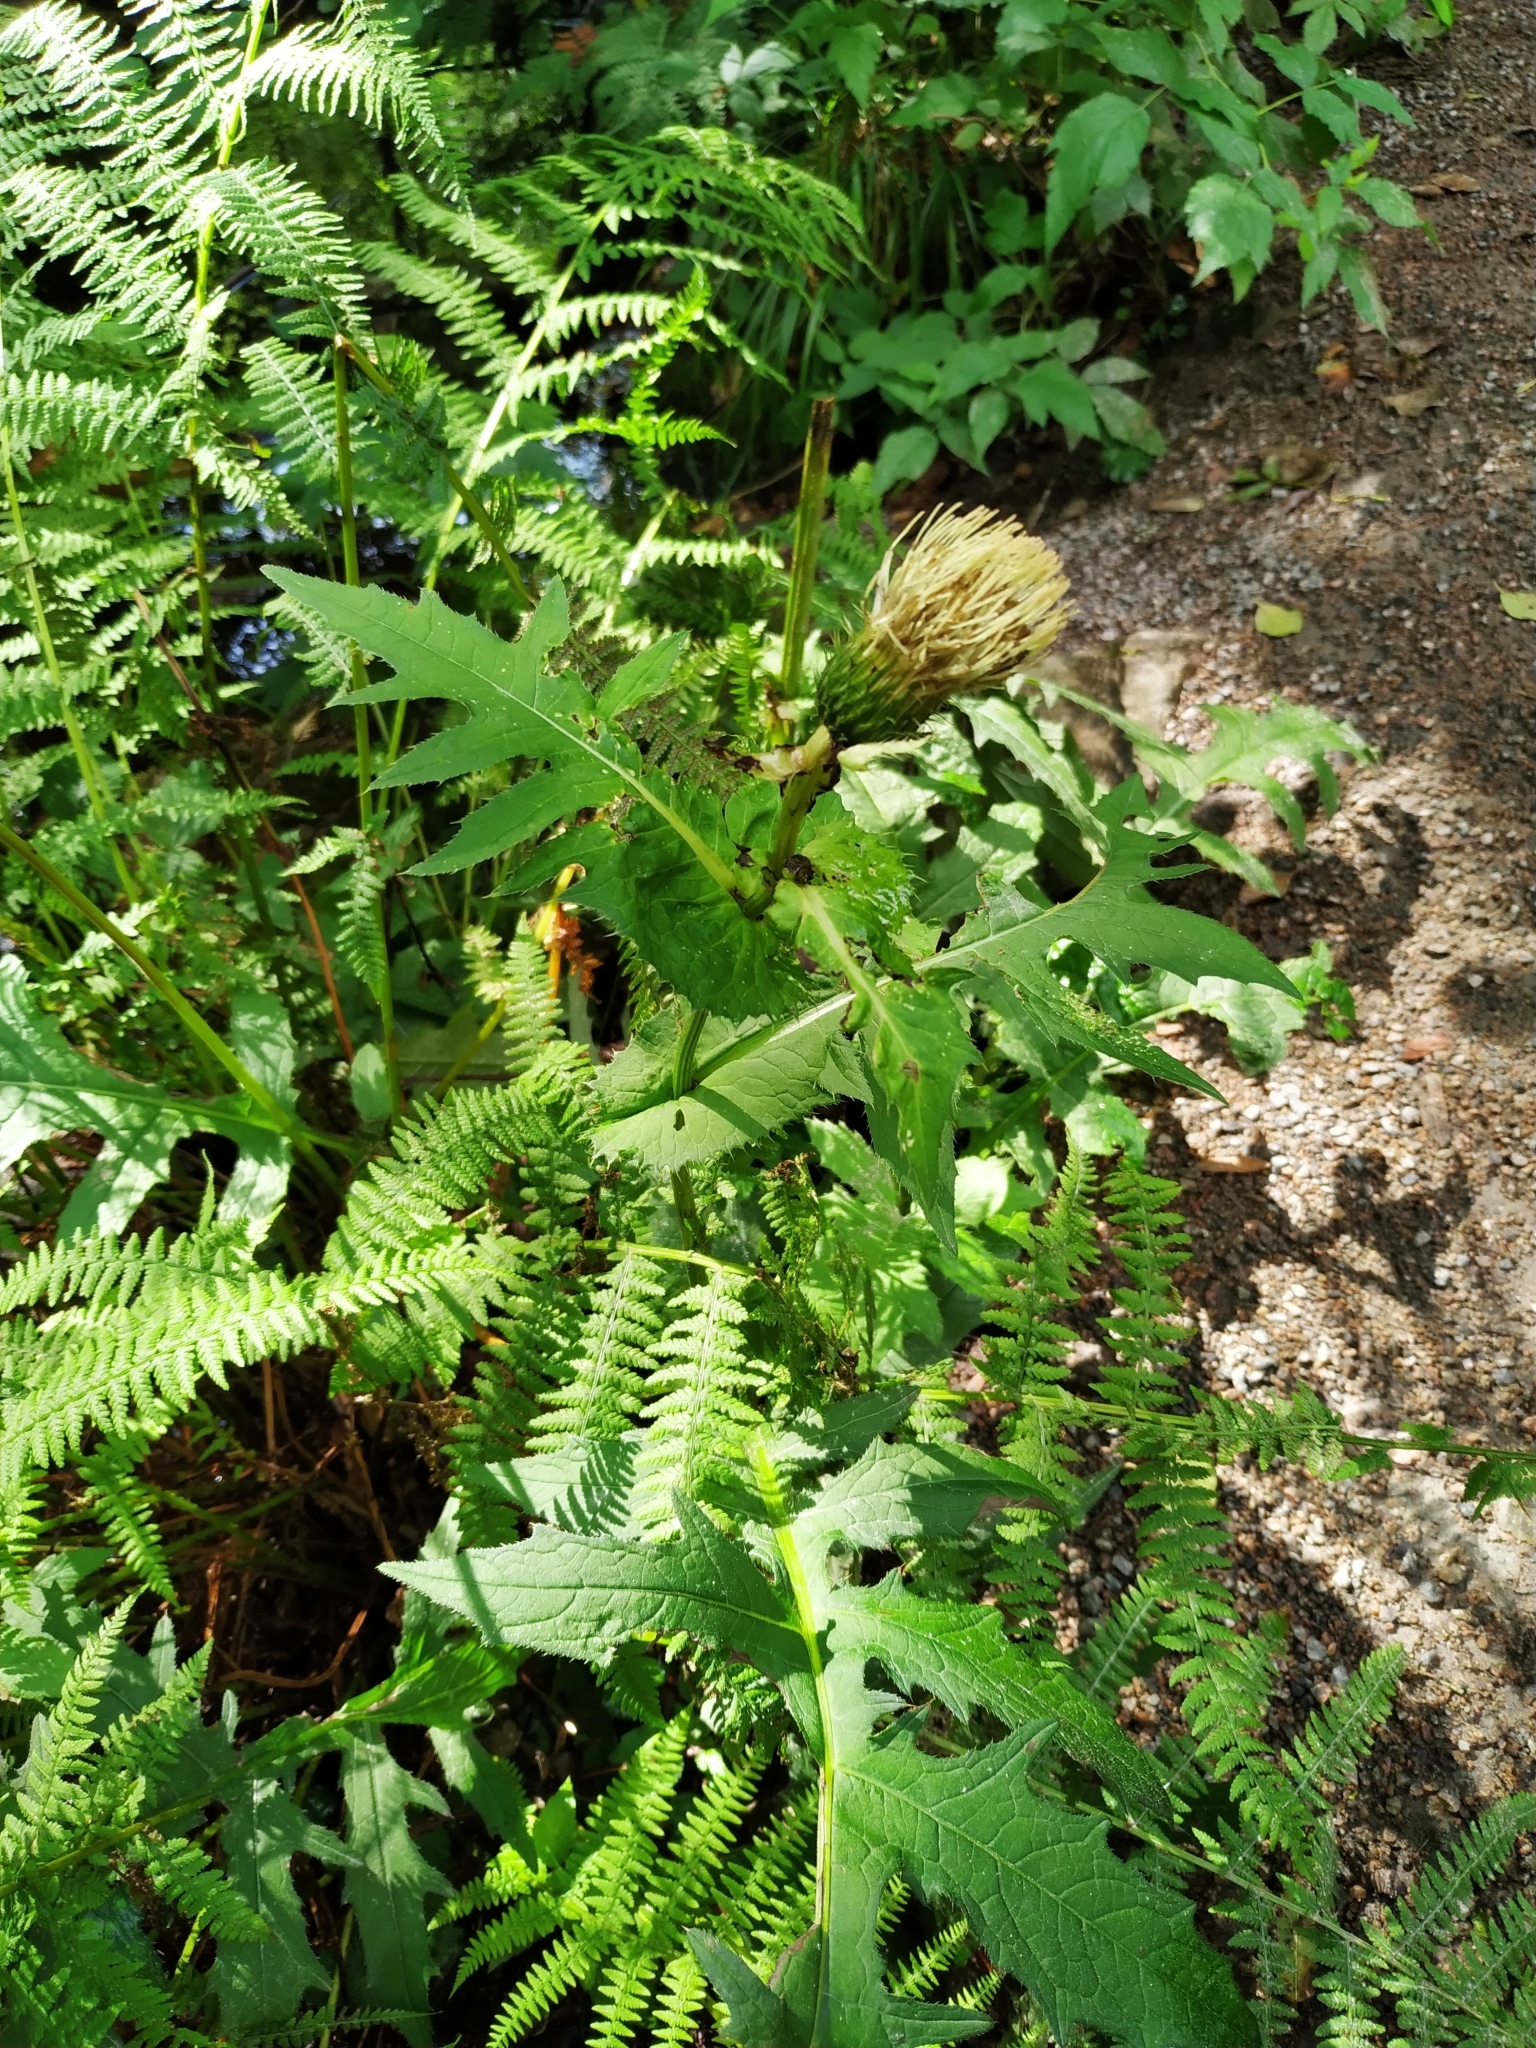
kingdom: Plantae
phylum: Tracheophyta
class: Magnoliopsida
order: Asterales
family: Asteraceae
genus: Cirsium
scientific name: Cirsium oleraceum
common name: Cabbage thistle
